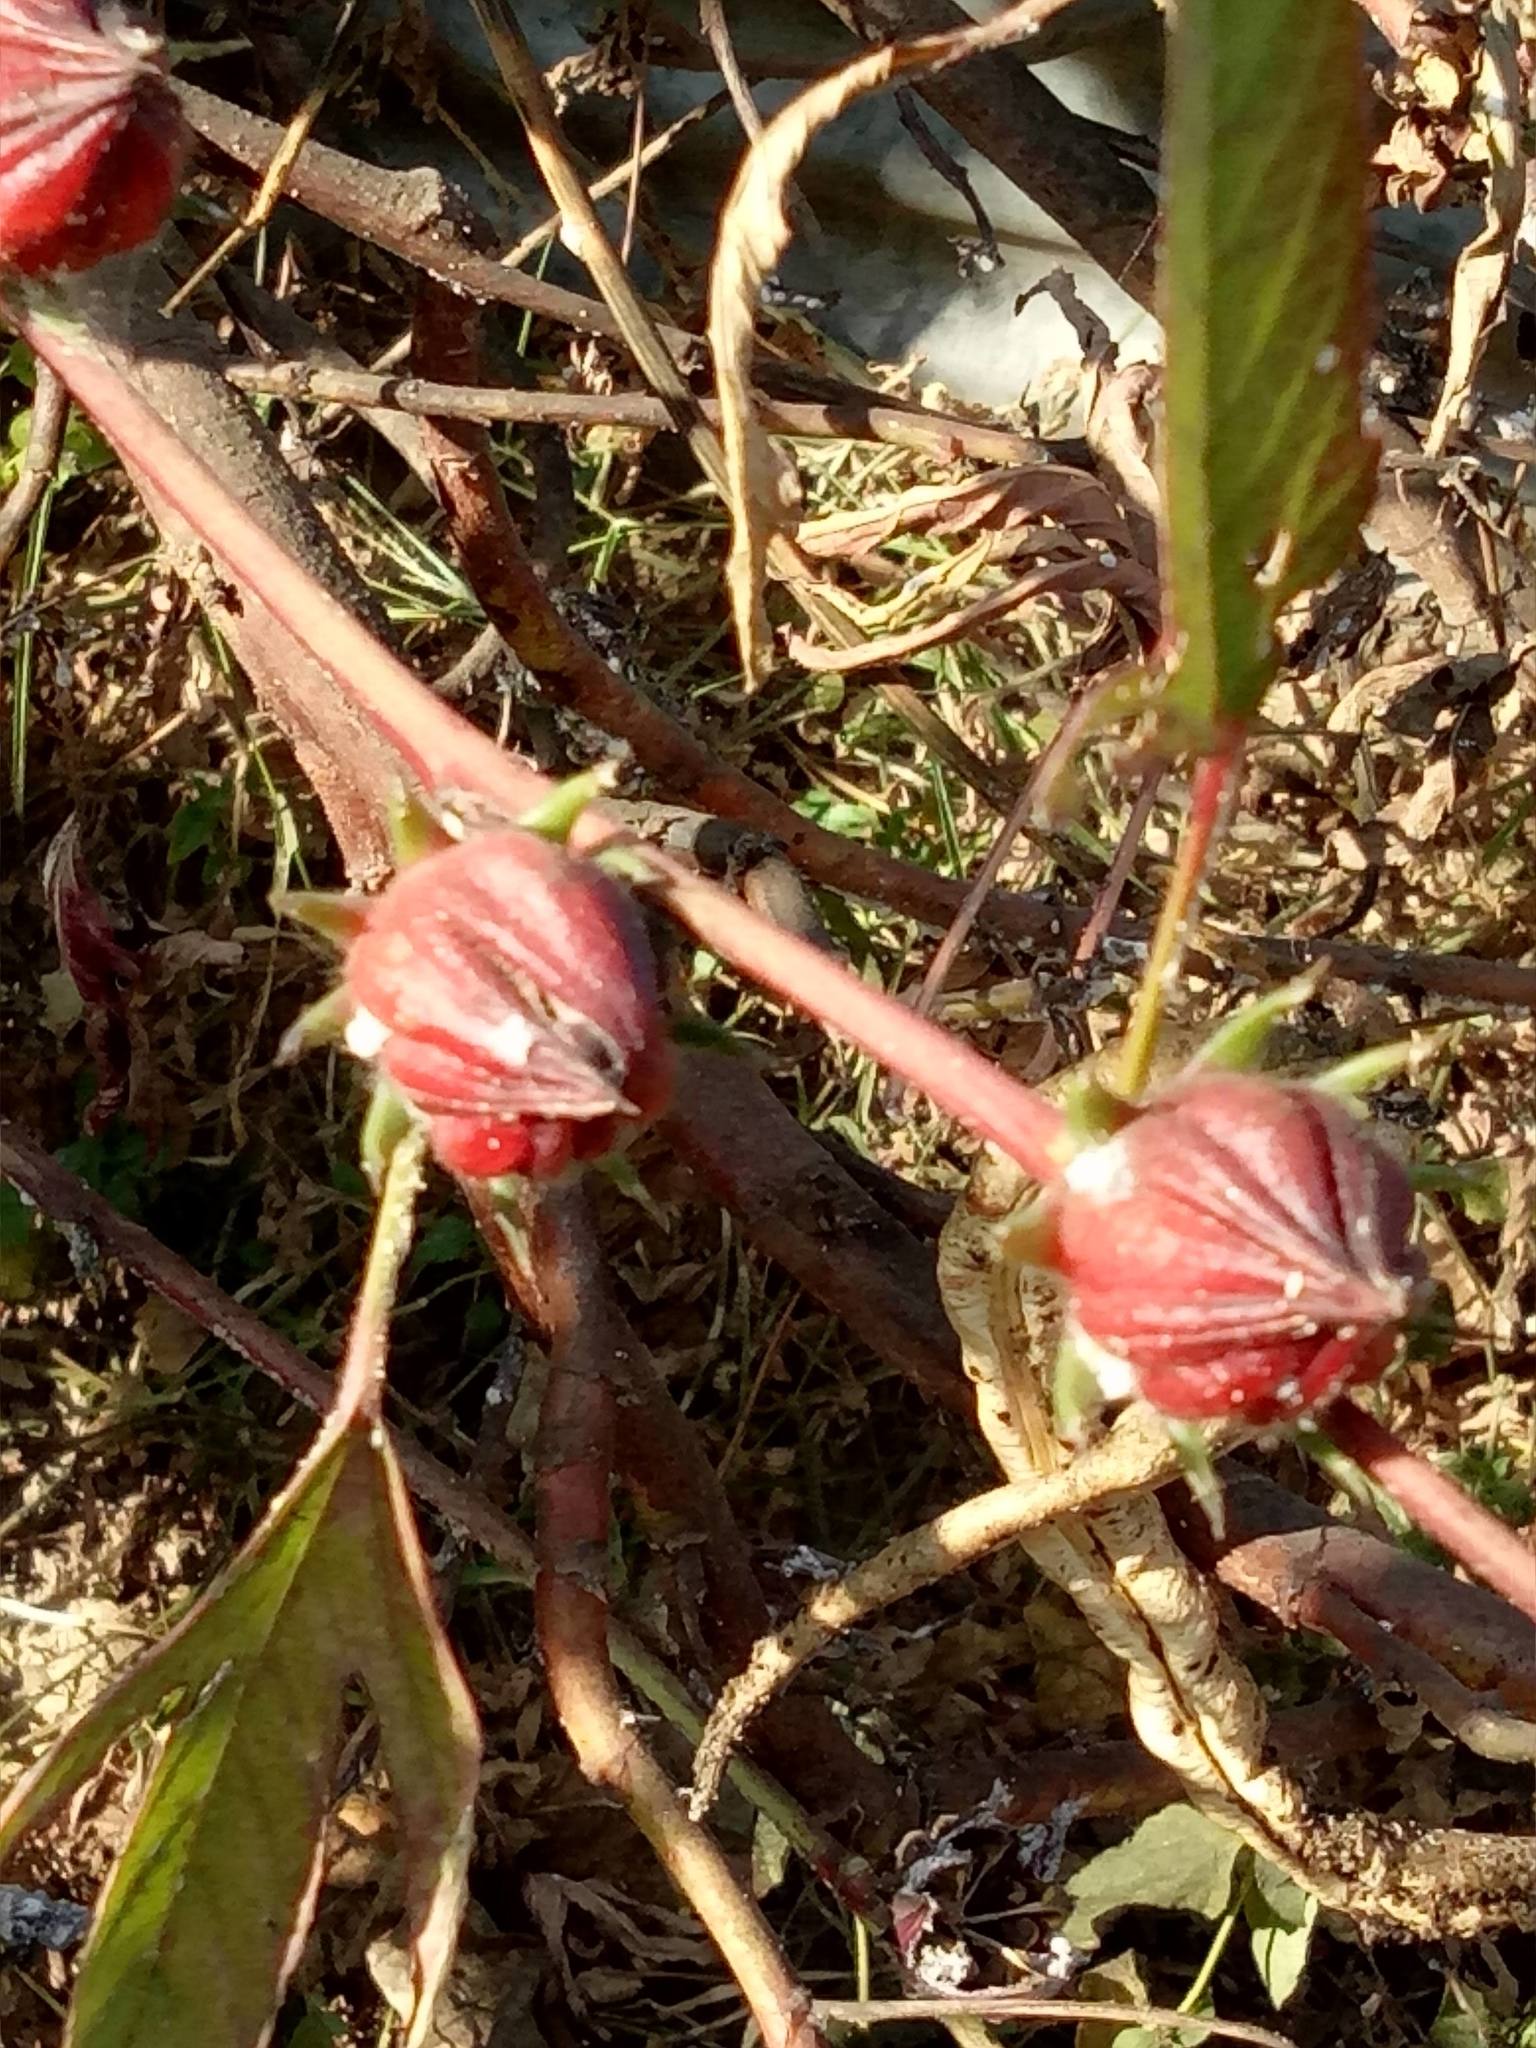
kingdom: Plantae
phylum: Tracheophyta
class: Magnoliopsida
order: Malvales
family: Malvaceae
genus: Hibiscus
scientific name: Hibiscus sabdariffa
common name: Roselle
